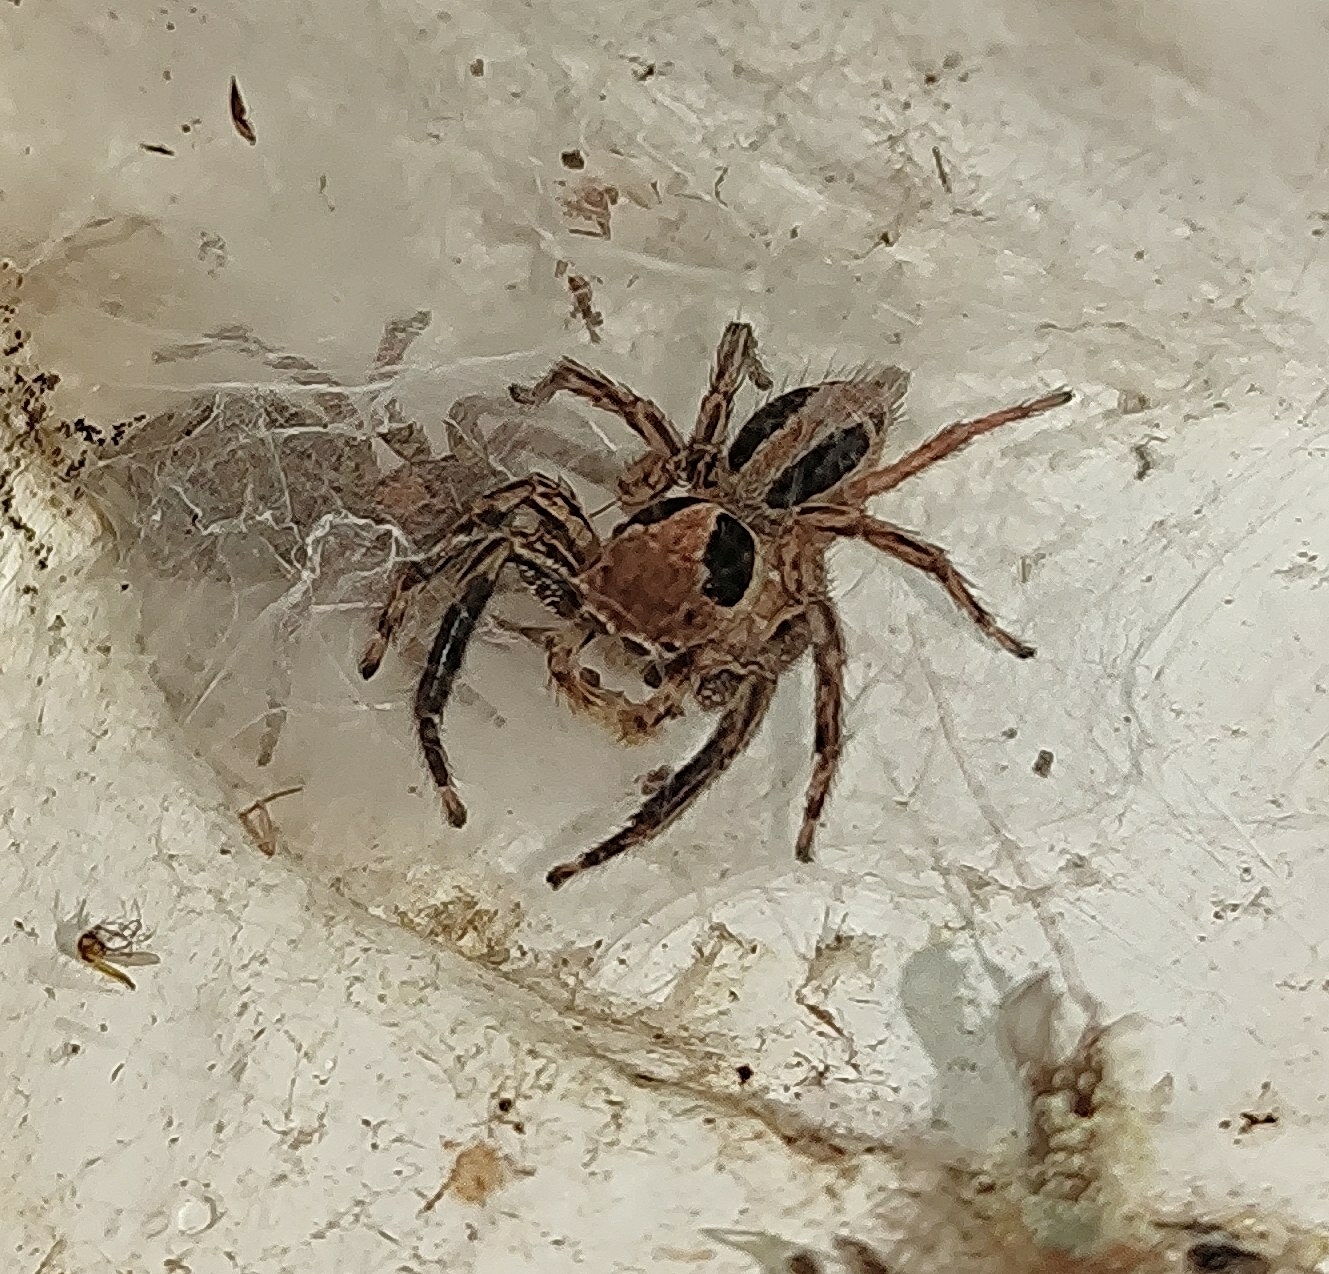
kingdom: Animalia
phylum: Arthropoda
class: Arachnida
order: Araneae
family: Salticidae
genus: Plexippus
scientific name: Plexippus petersi
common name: Jumping spider
